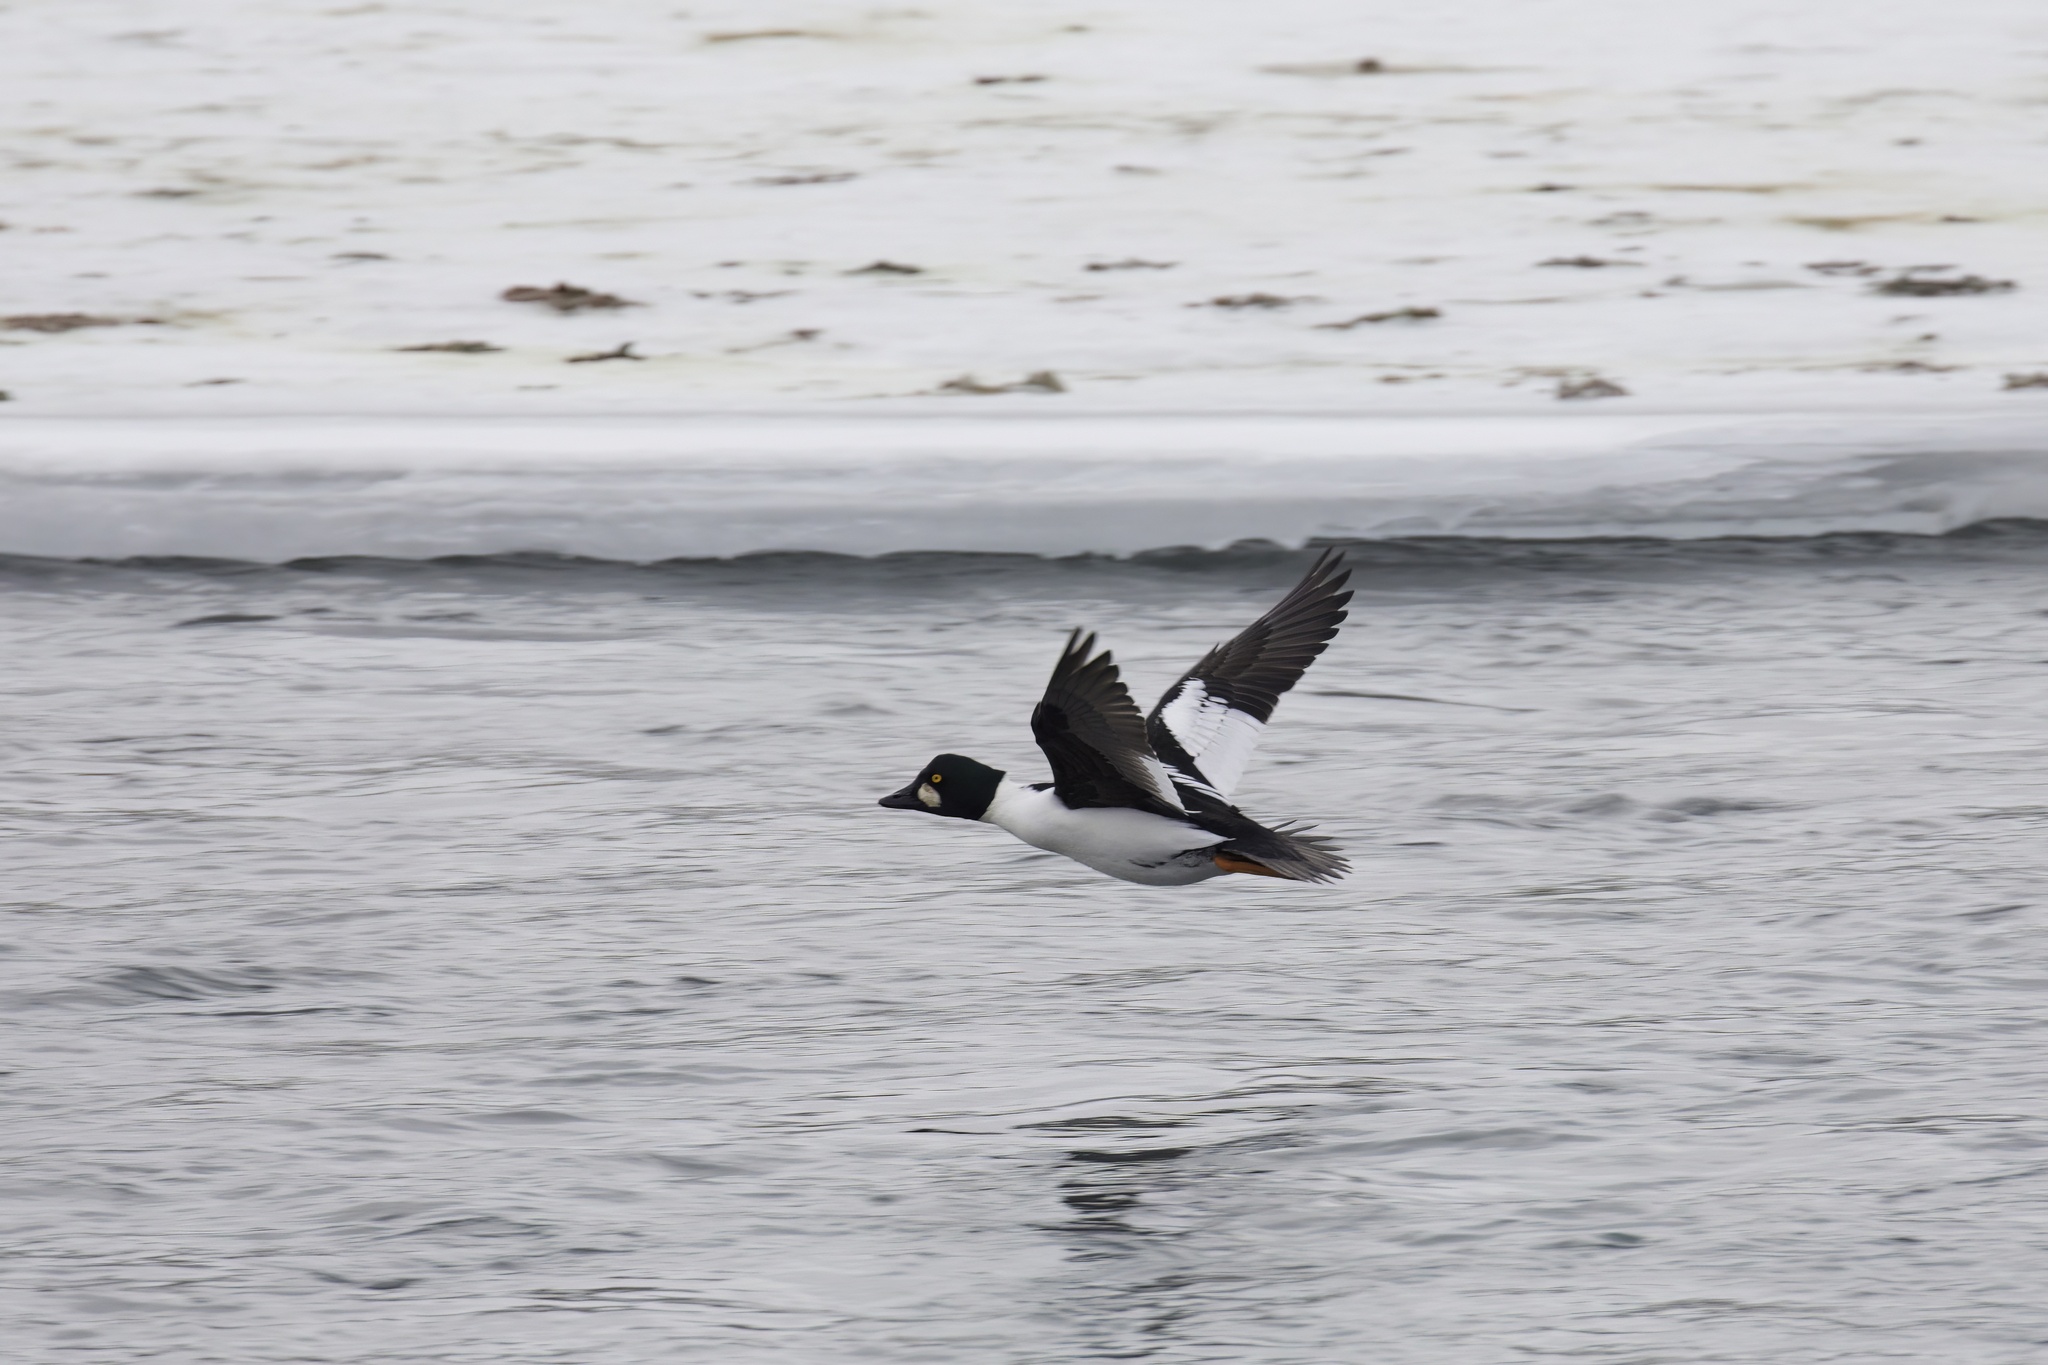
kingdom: Animalia
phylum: Chordata
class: Aves
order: Anseriformes
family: Anatidae
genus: Bucephala
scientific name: Bucephala clangula
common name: Common goldeneye
